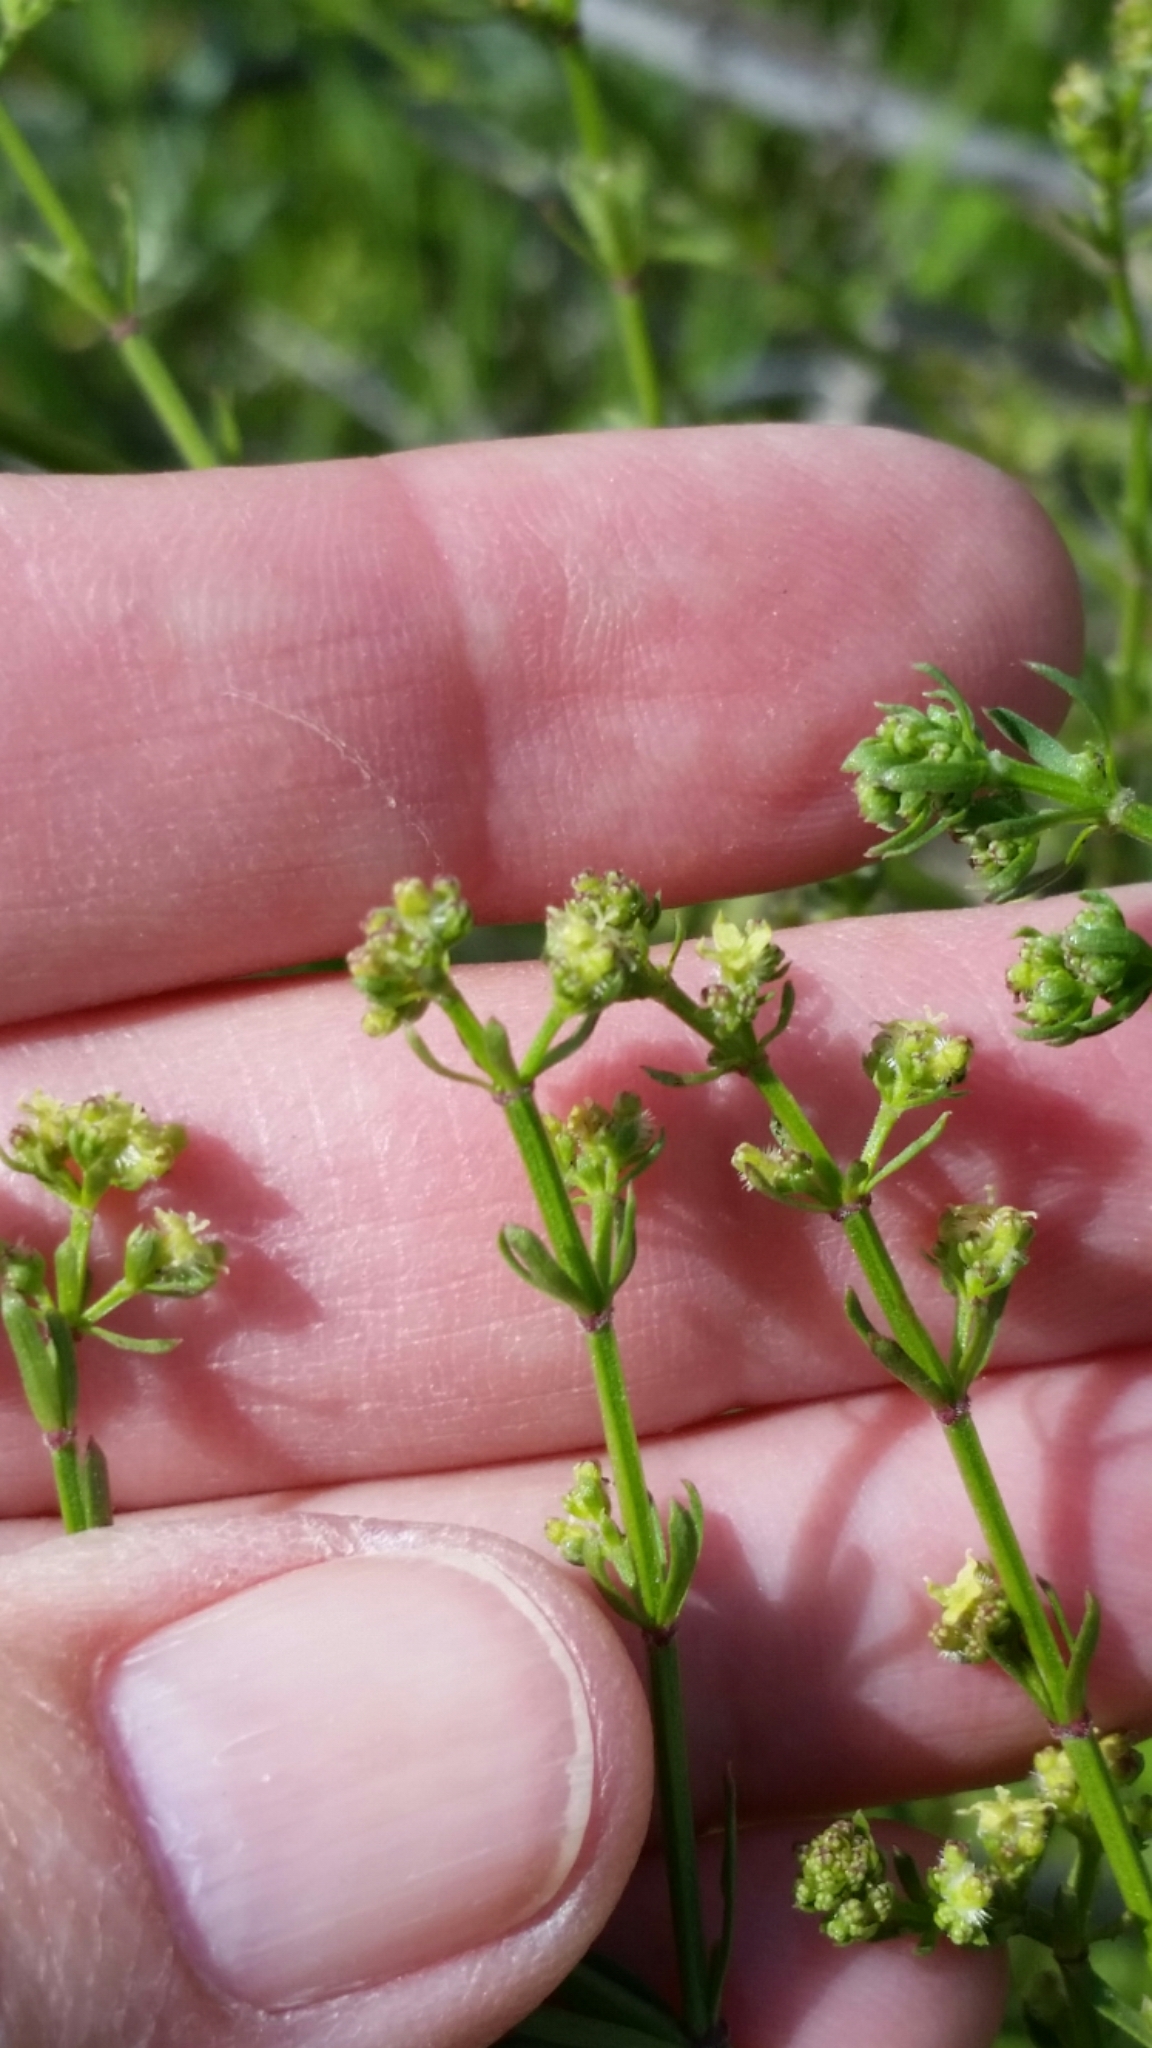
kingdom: Plantae
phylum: Tracheophyta
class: Magnoliopsida
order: Gentianales
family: Rubiaceae
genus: Galium
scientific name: Galium angustifolium
